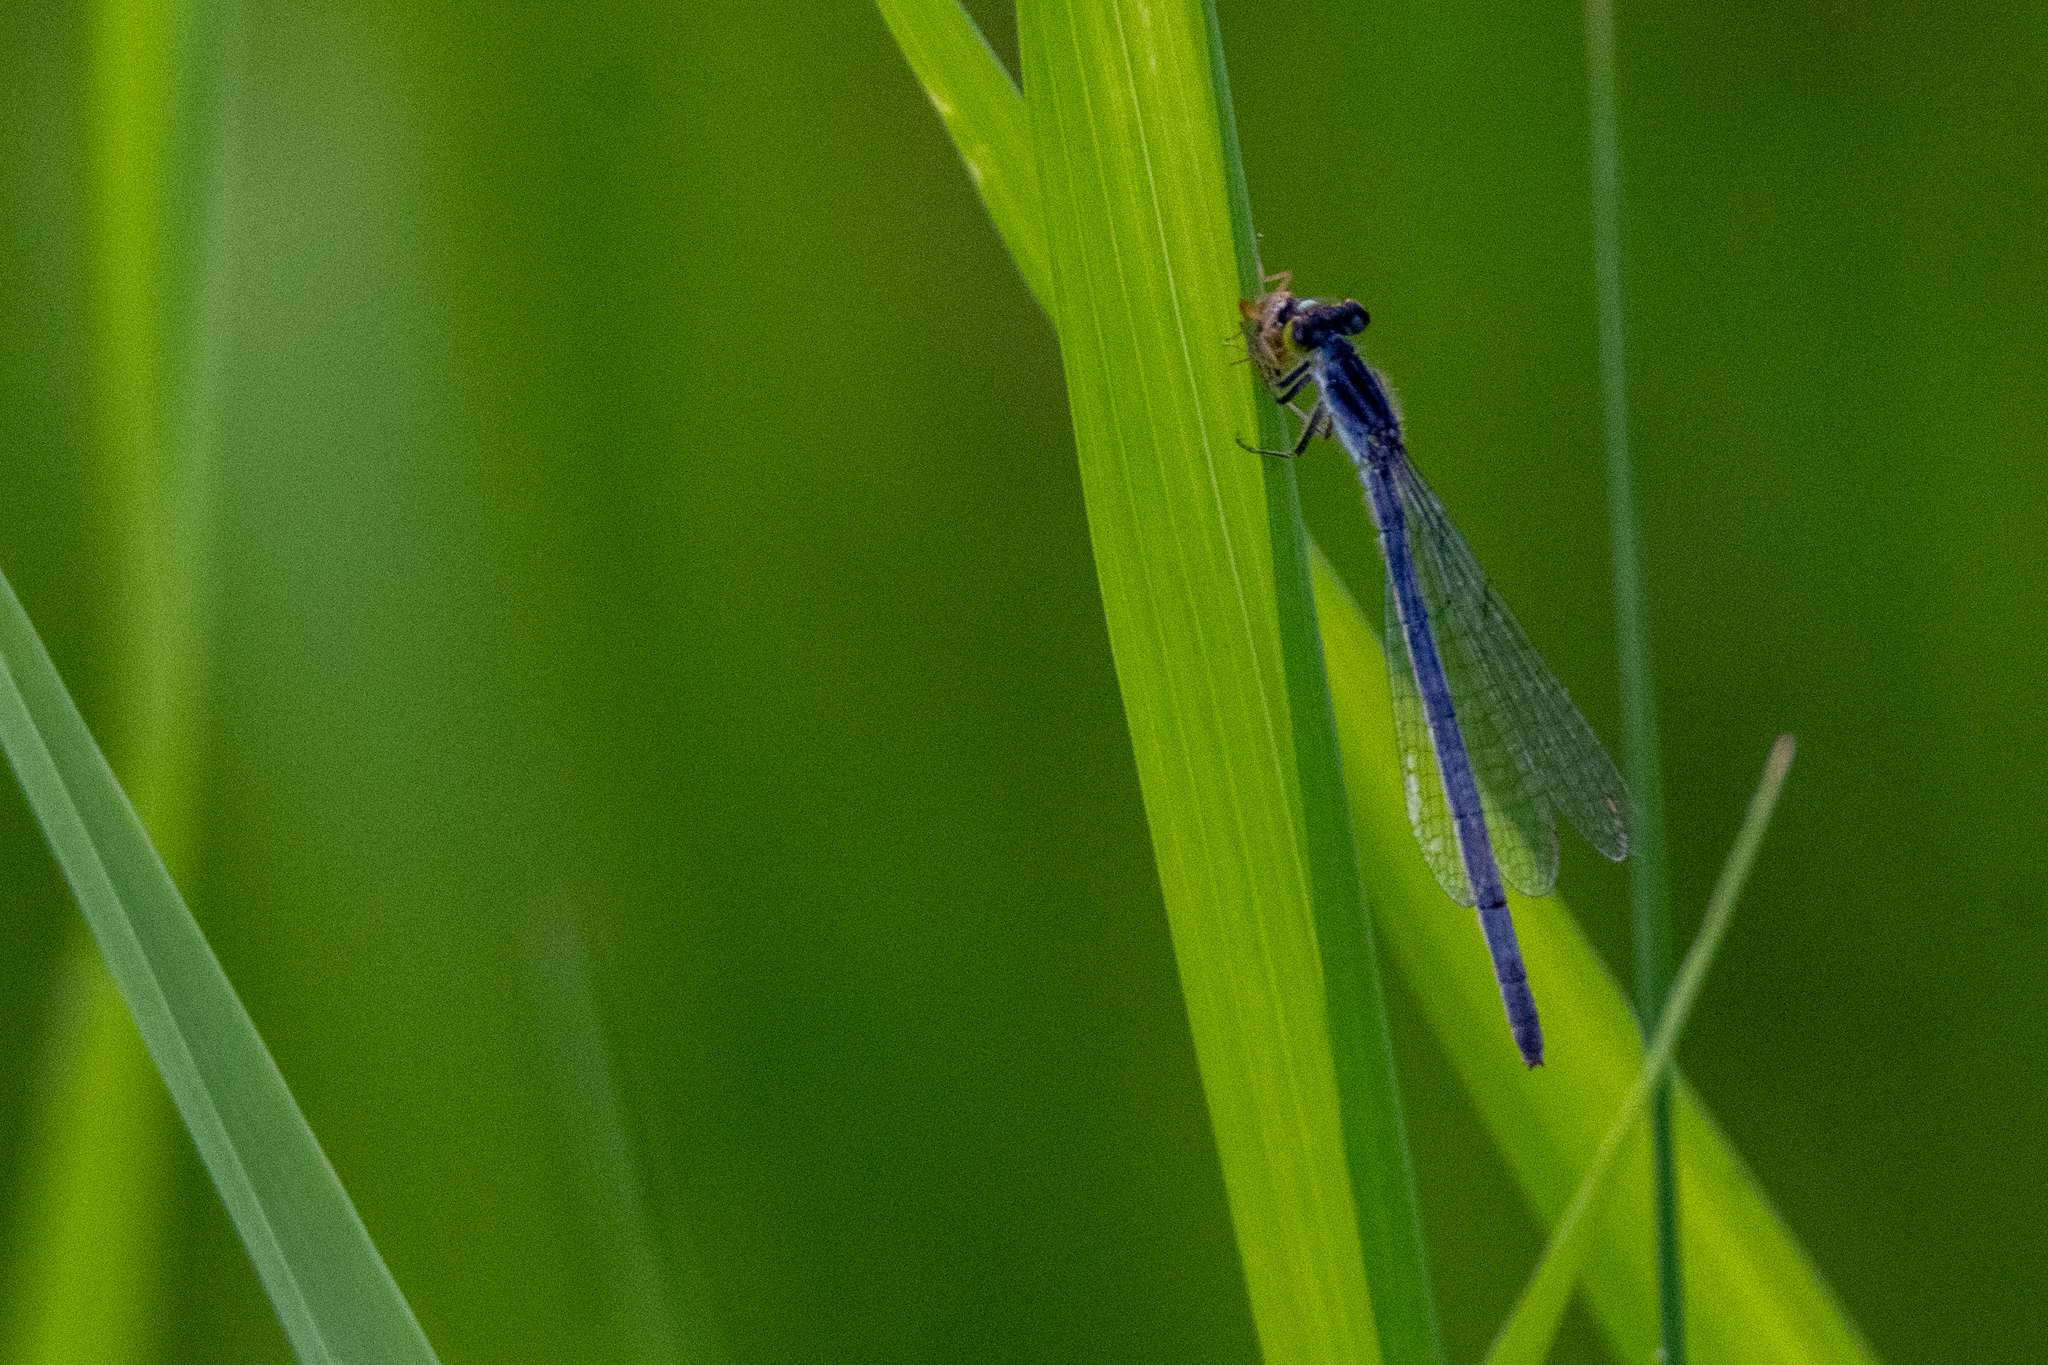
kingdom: Animalia
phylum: Arthropoda
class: Insecta
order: Odonata
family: Coenagrionidae
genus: Ischnura
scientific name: Ischnura verticalis
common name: Eastern forktail
